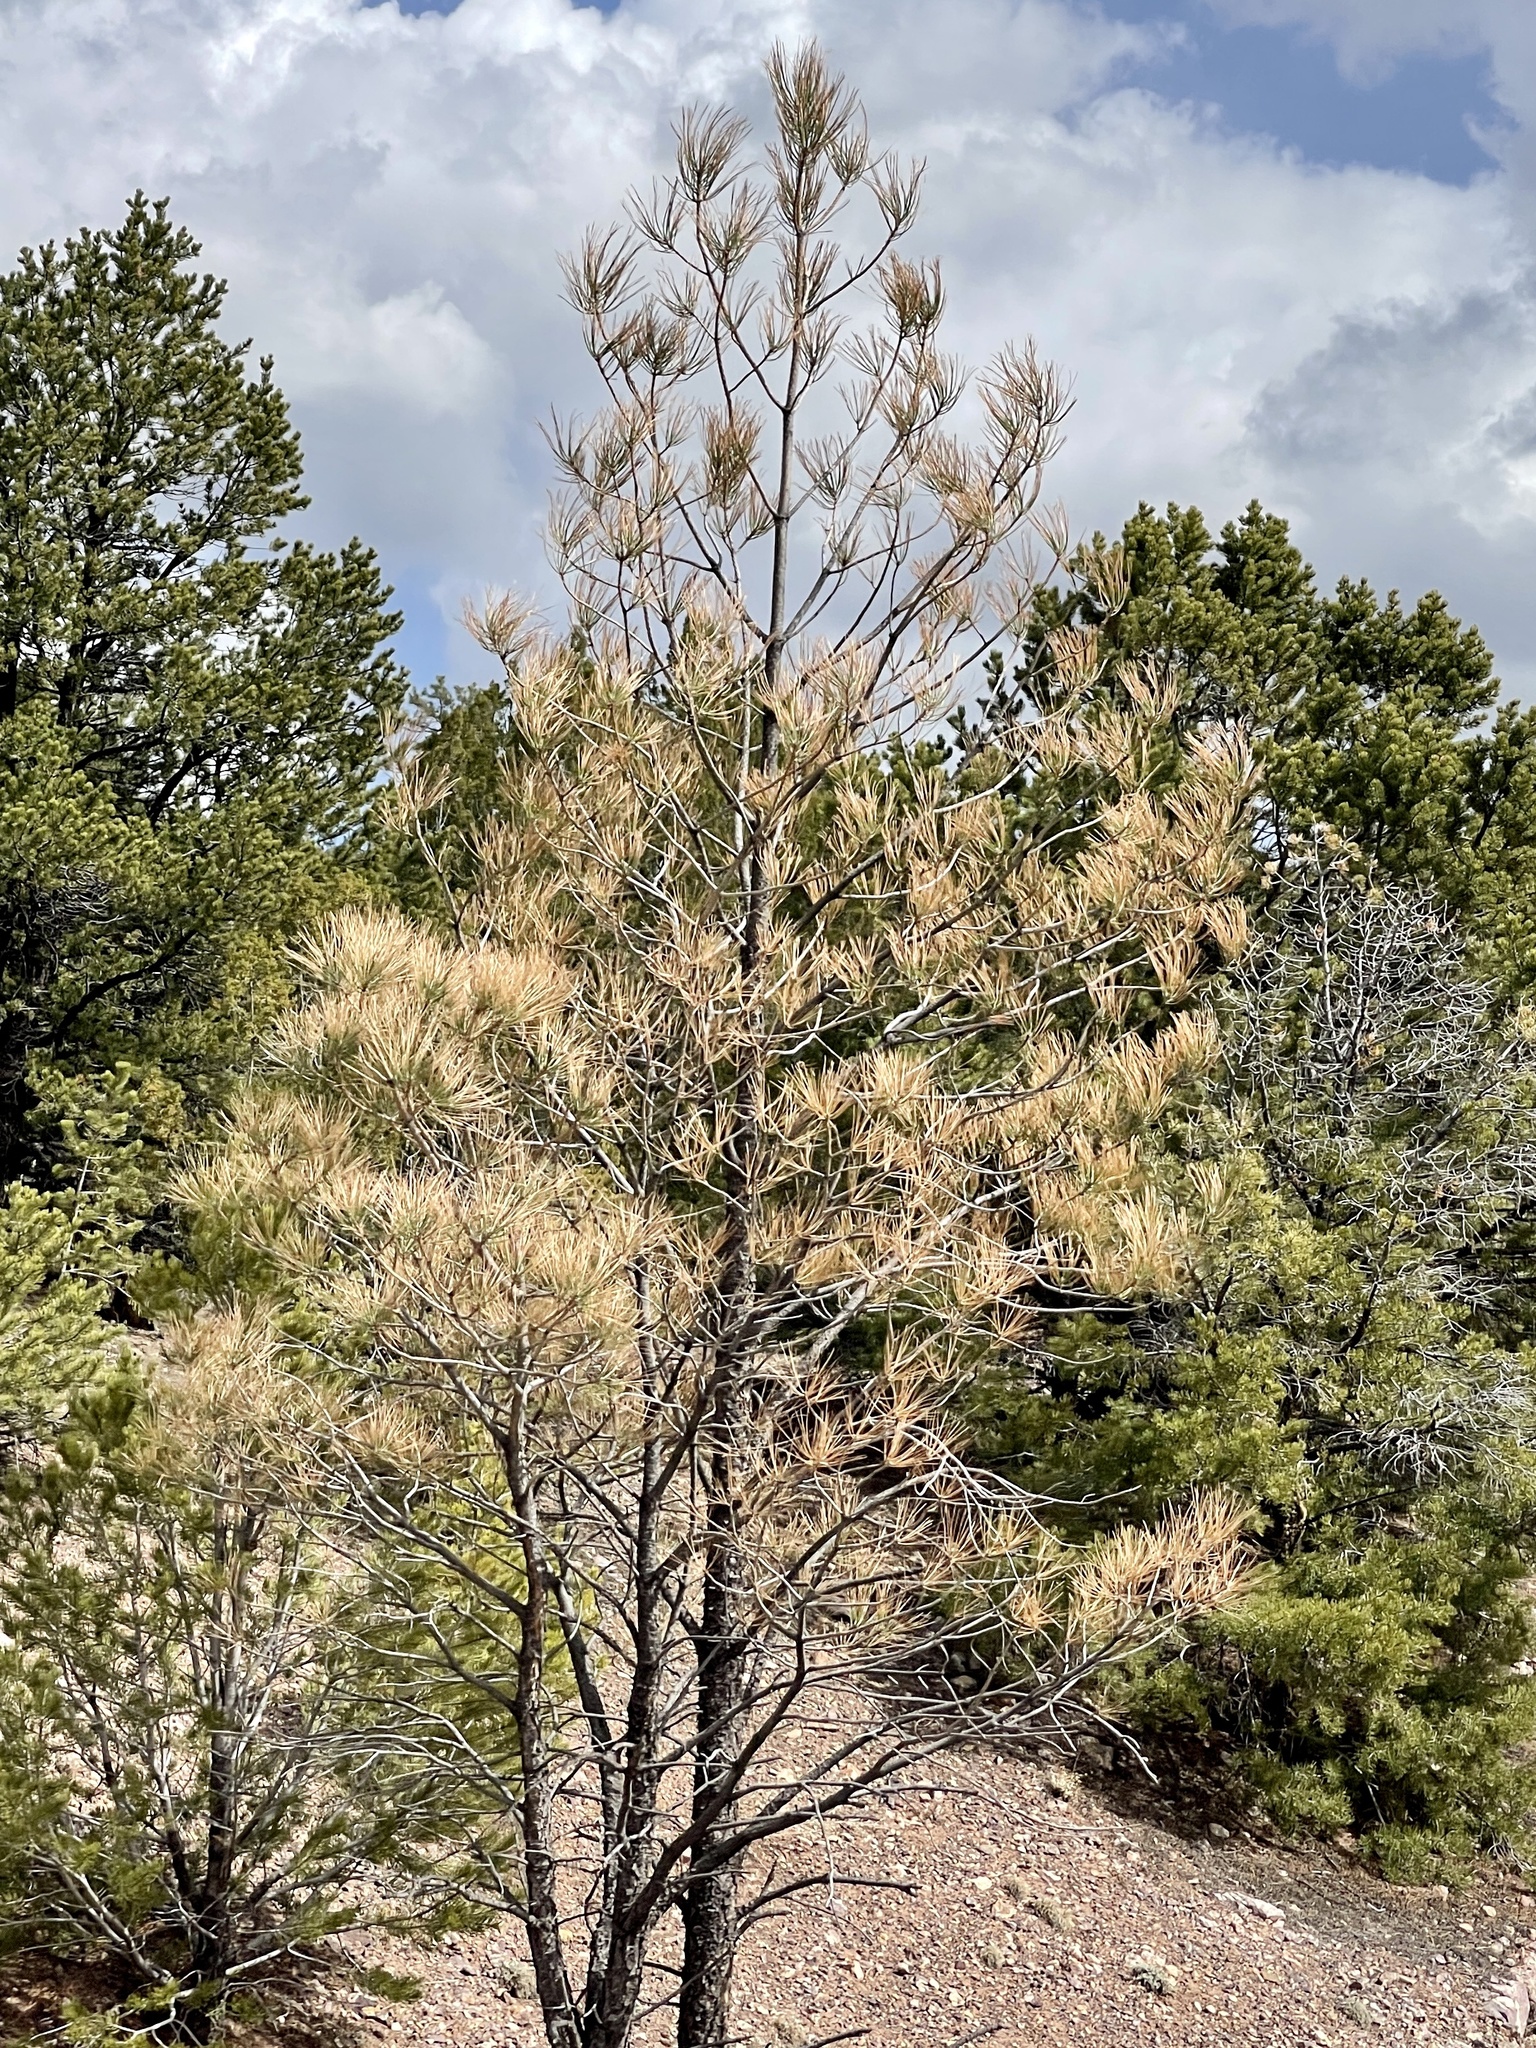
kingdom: Plantae
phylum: Tracheophyta
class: Pinopsida
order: Pinales
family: Pinaceae
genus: Pinus
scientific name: Pinus ponderosa
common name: Western yellow-pine
